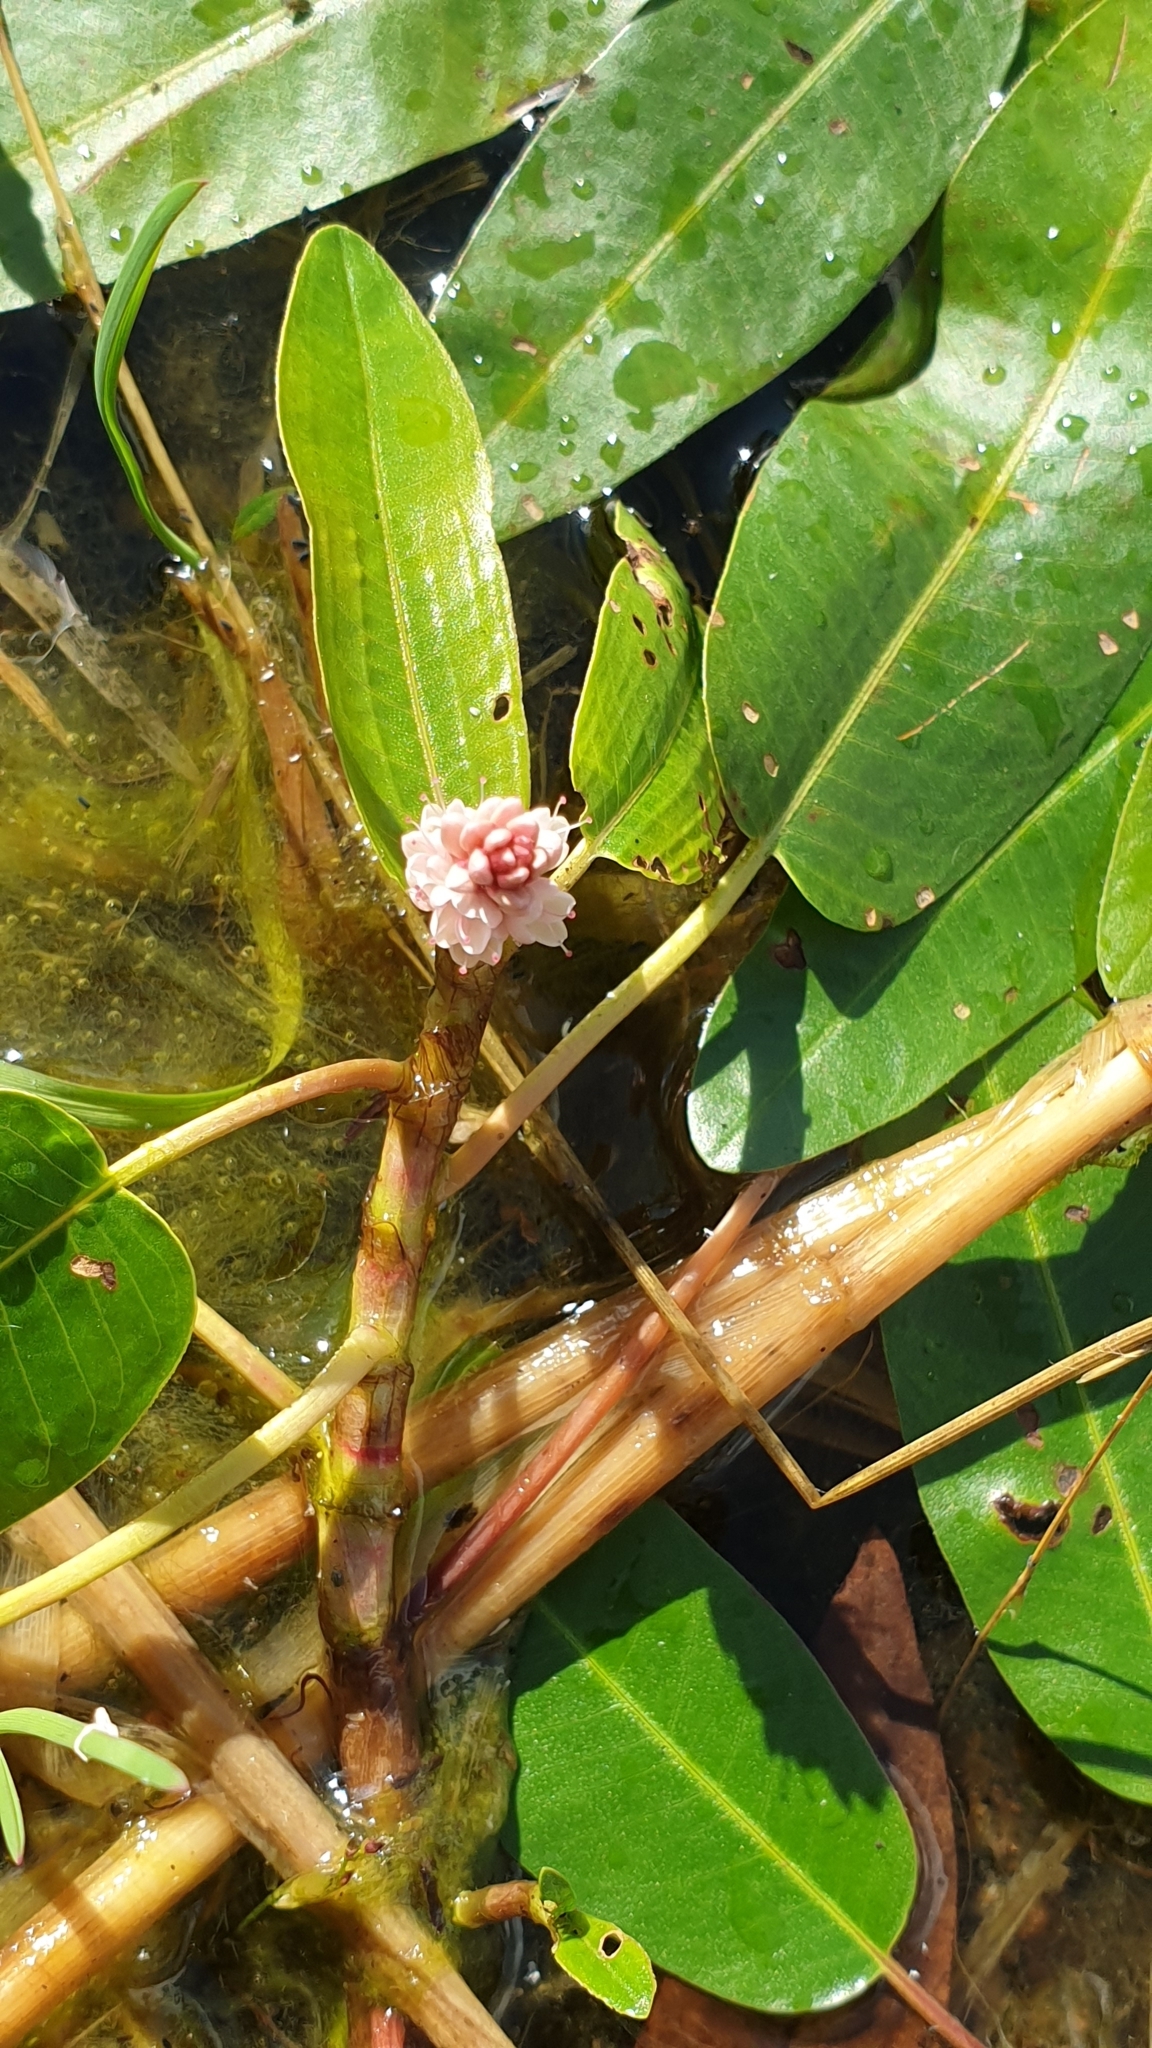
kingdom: Plantae
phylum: Tracheophyta
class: Magnoliopsida
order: Caryophyllales
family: Polygonaceae
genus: Persicaria
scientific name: Persicaria amphibia
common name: Amphibious bistort
